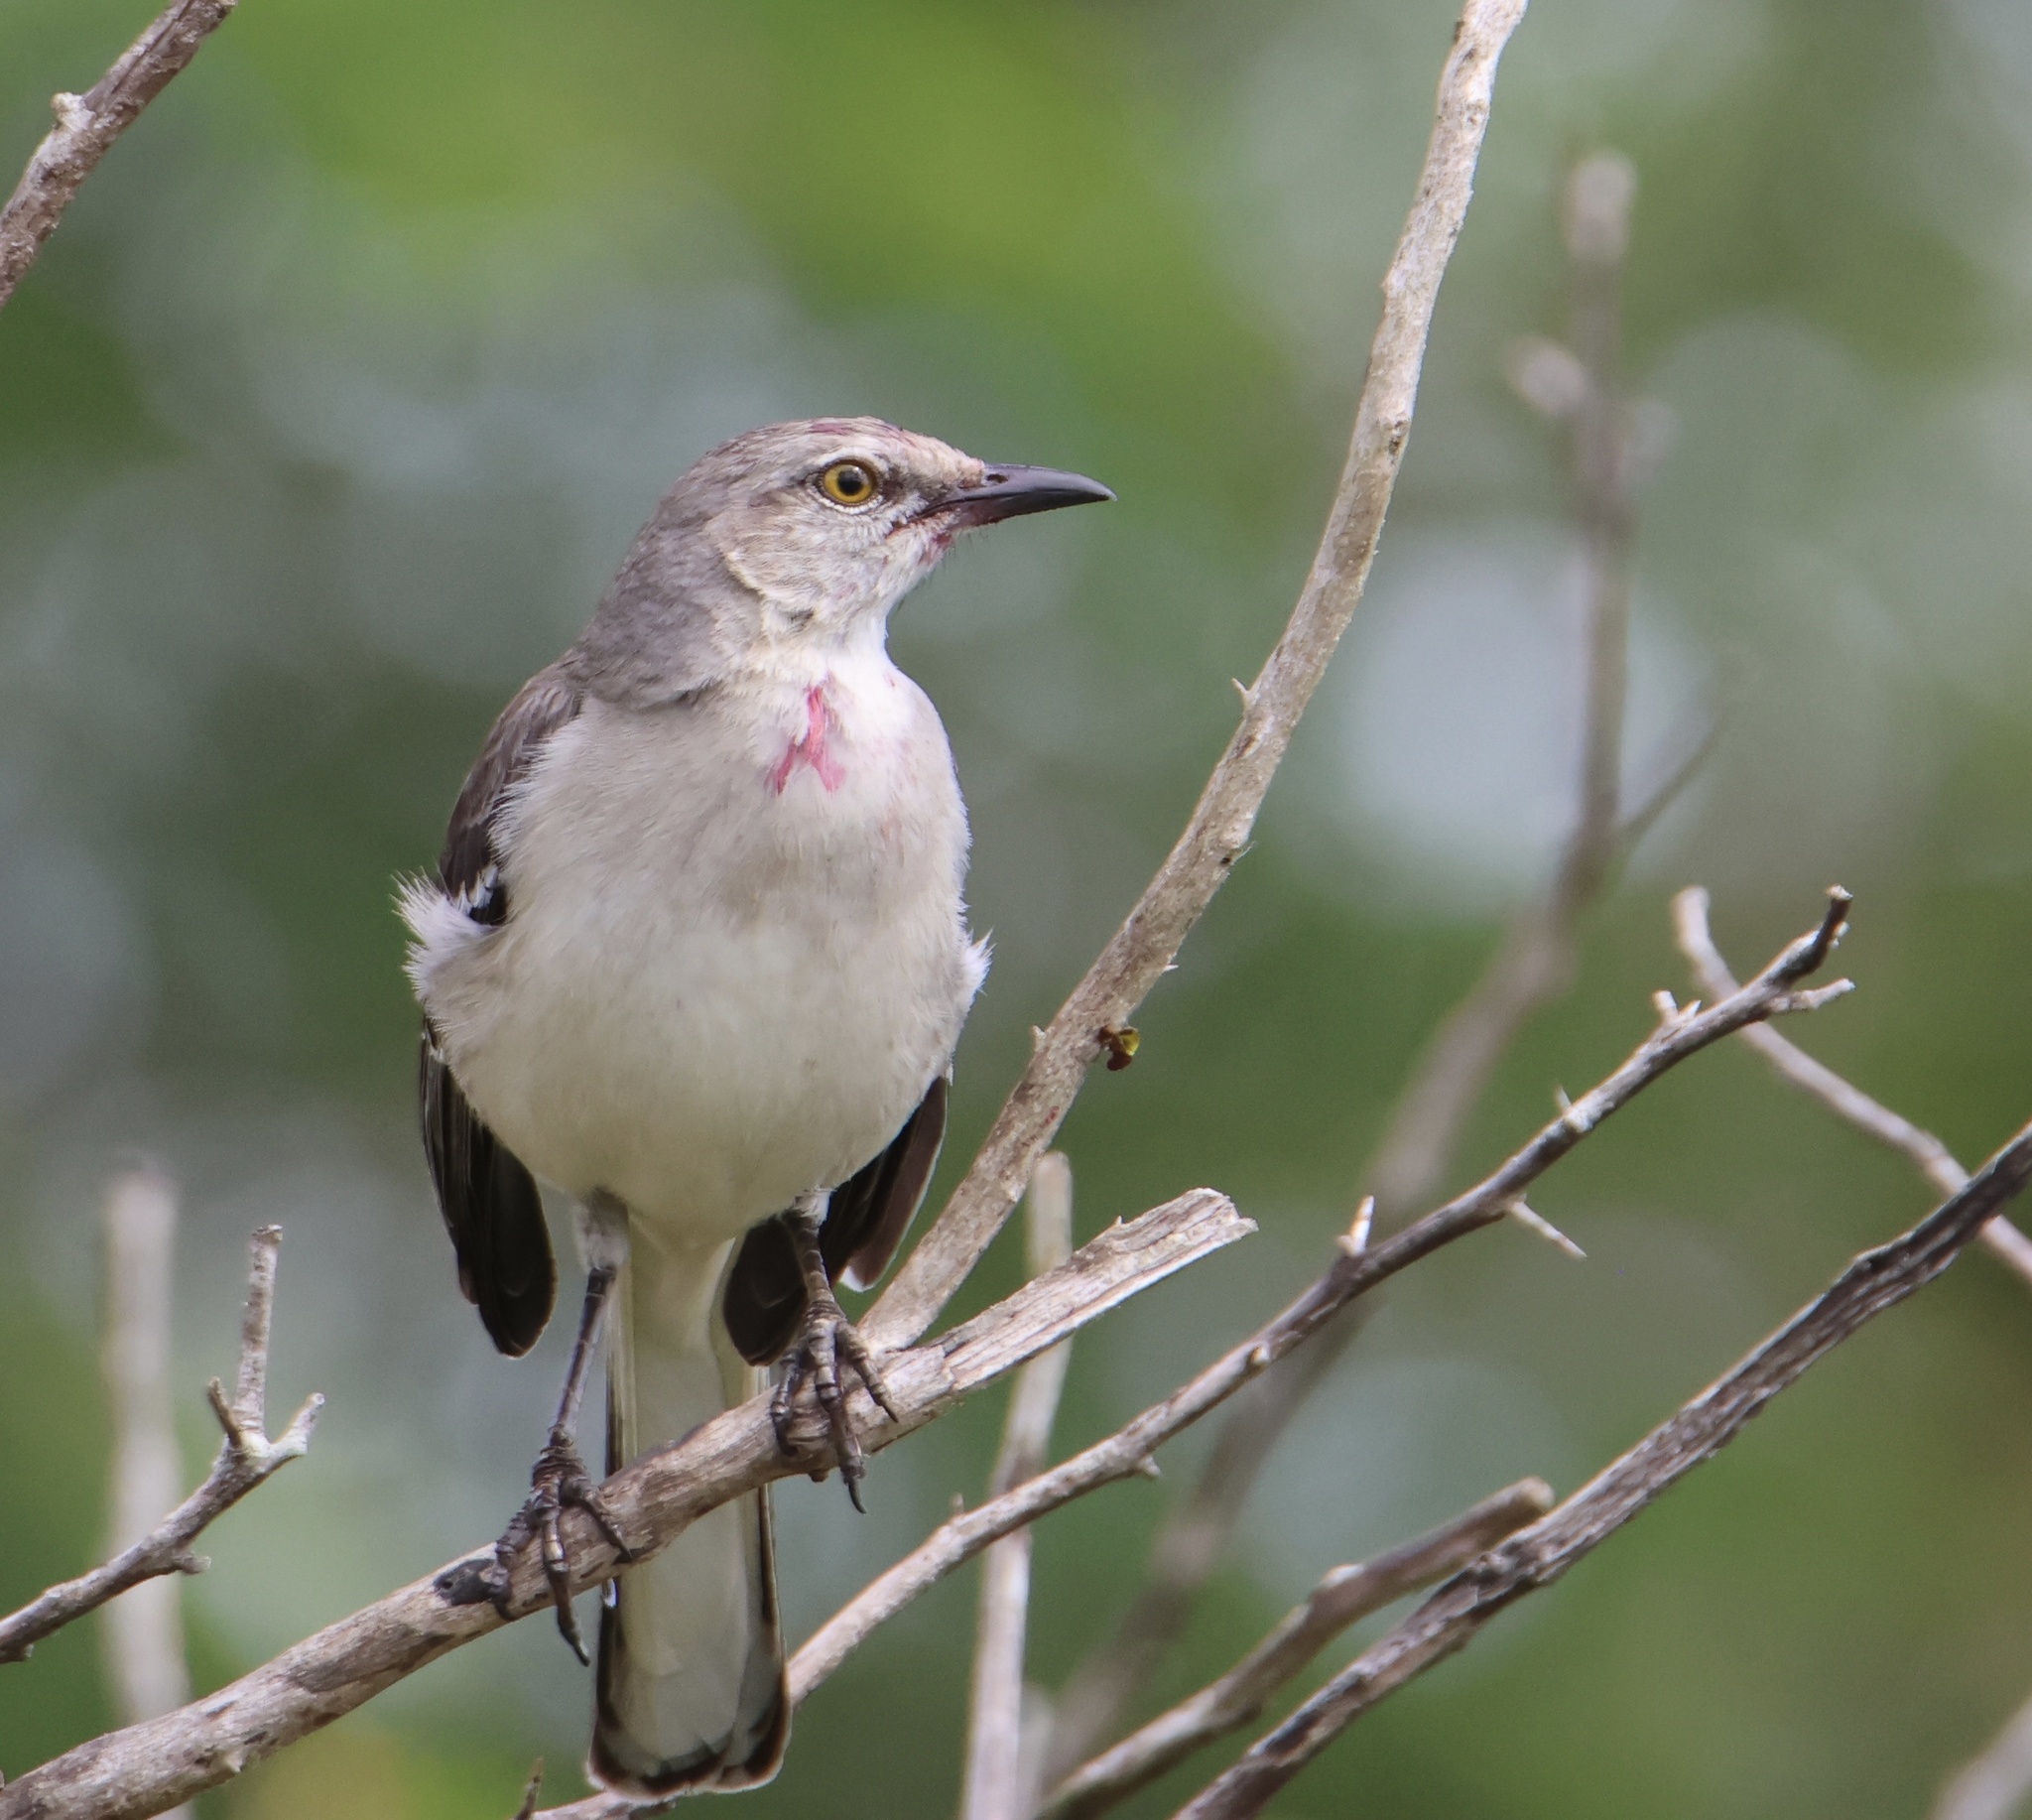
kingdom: Animalia
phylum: Chordata
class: Aves
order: Passeriformes
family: Mimidae
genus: Mimus
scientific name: Mimus polyglottos
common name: Northern mockingbird
